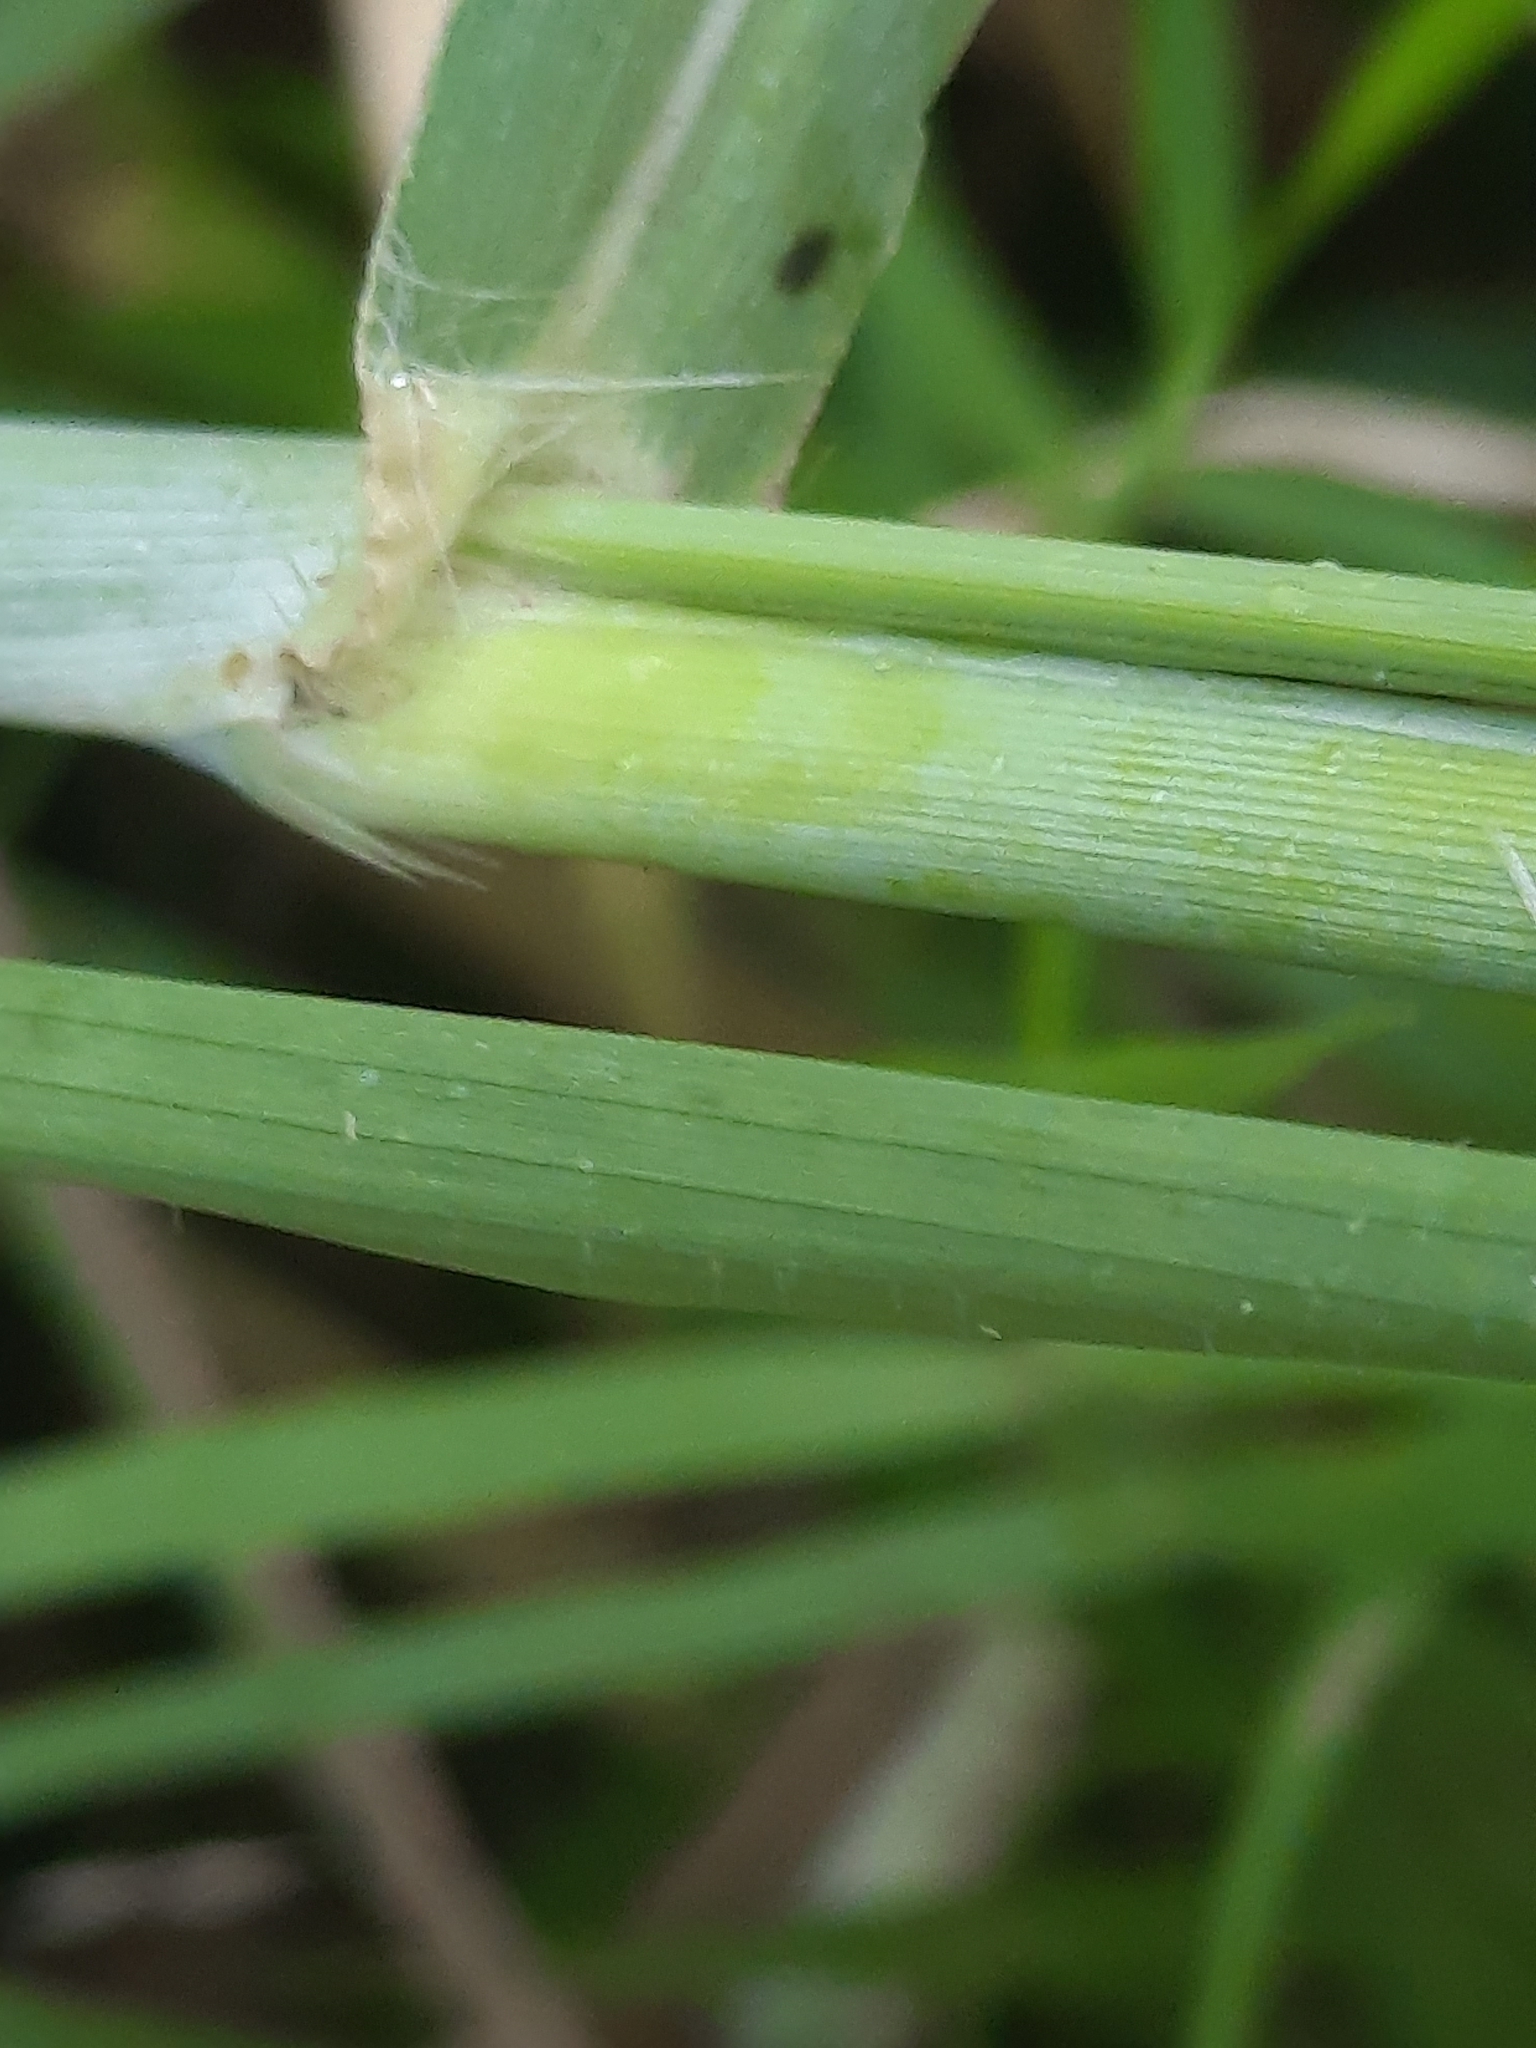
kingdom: Plantae
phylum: Tracheophyta
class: Liliopsida
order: Poales
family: Poaceae
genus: Cenchrus
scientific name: Cenchrus purpureus
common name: Elephant grass
